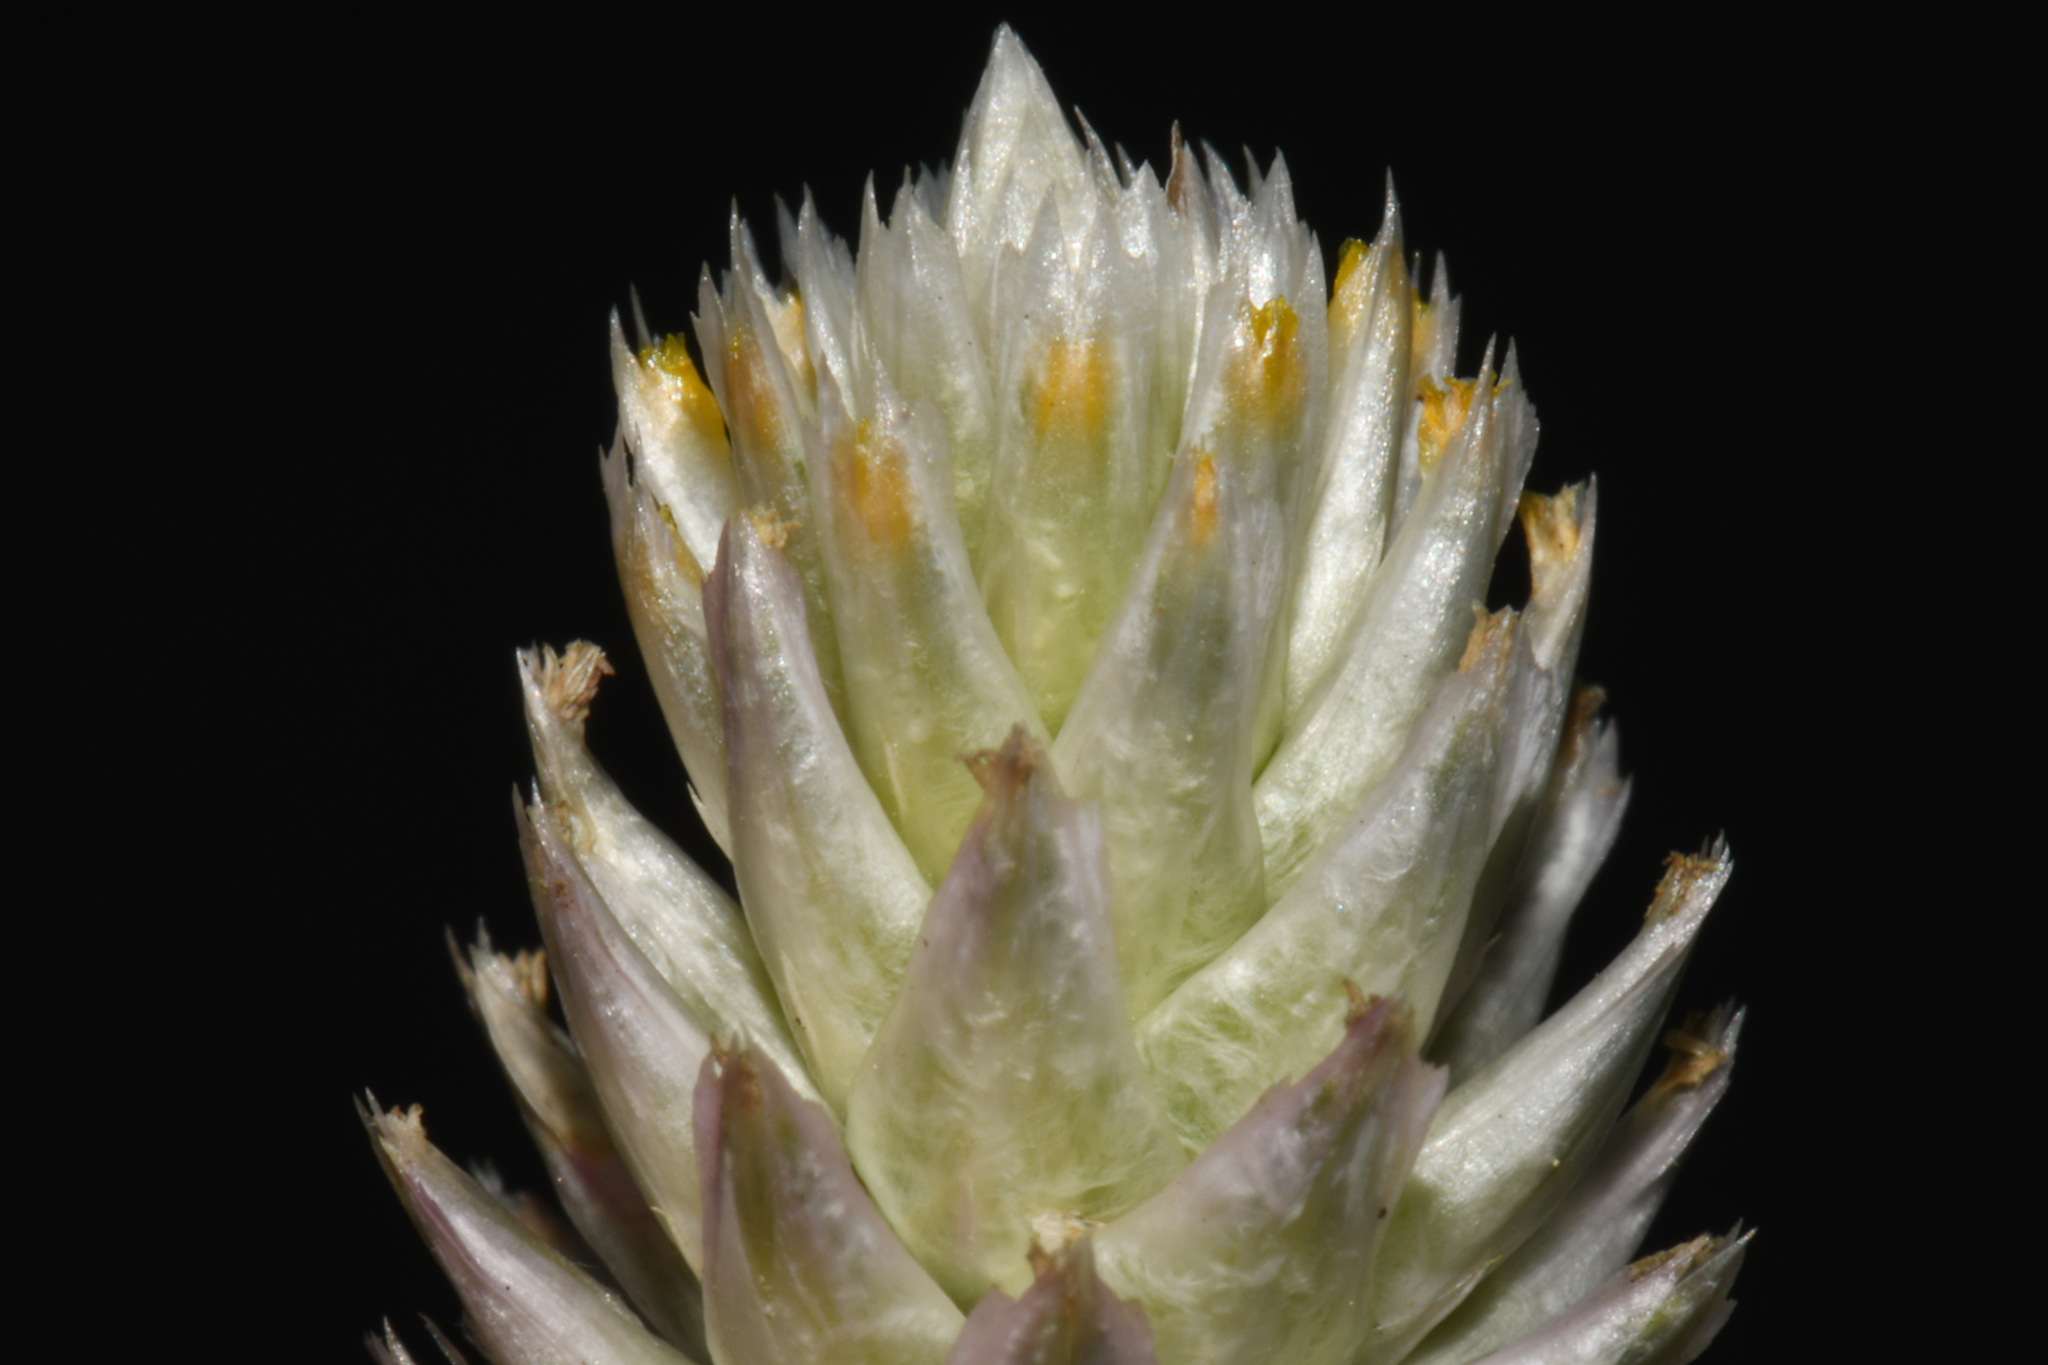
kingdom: Plantae
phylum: Tracheophyta
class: Magnoliopsida
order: Caryophyllales
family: Amaranthaceae
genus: Gomphrena
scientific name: Gomphrena serrata
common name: Arrasa con todo
